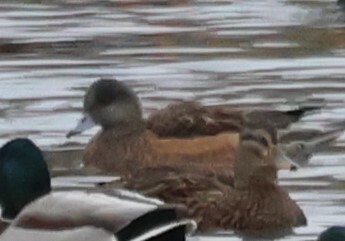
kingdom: Animalia
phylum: Chordata
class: Aves
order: Anseriformes
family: Anatidae
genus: Mareca
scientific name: Mareca americana
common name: American wigeon
